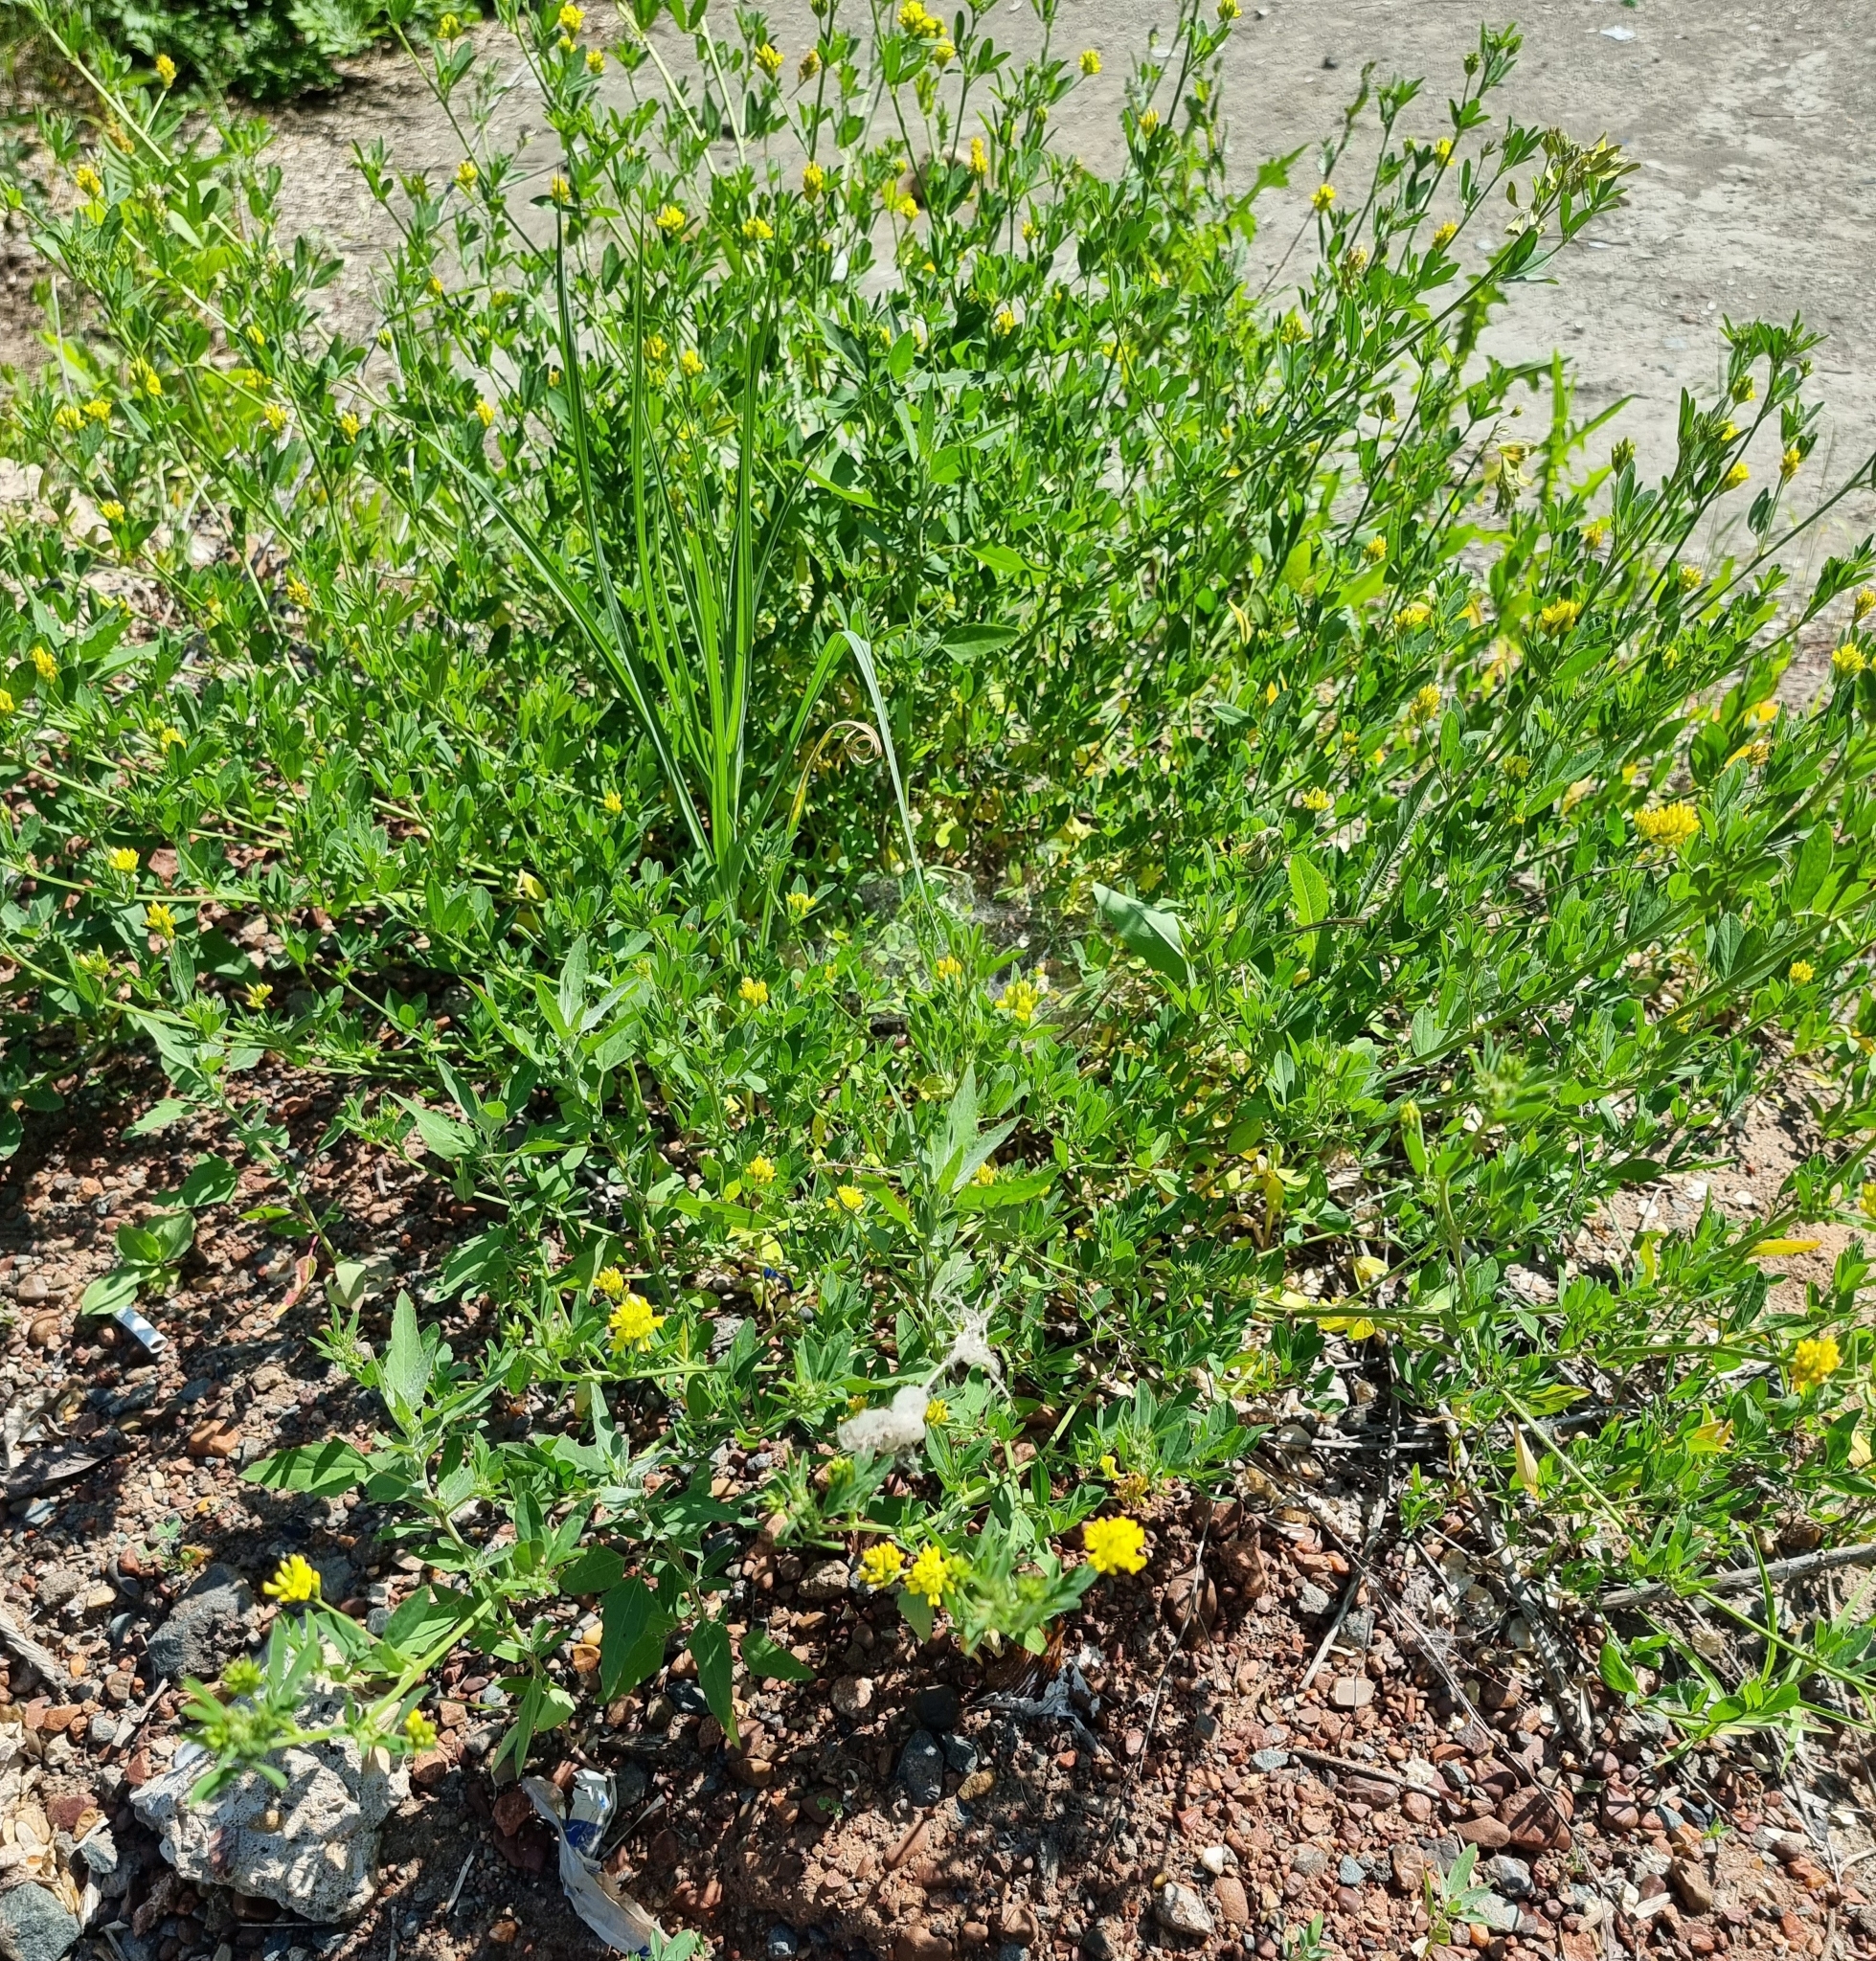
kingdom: Plantae
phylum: Tracheophyta
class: Magnoliopsida
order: Fabales
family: Fabaceae
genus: Medicago
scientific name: Medicago falcata
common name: Sickle medick
